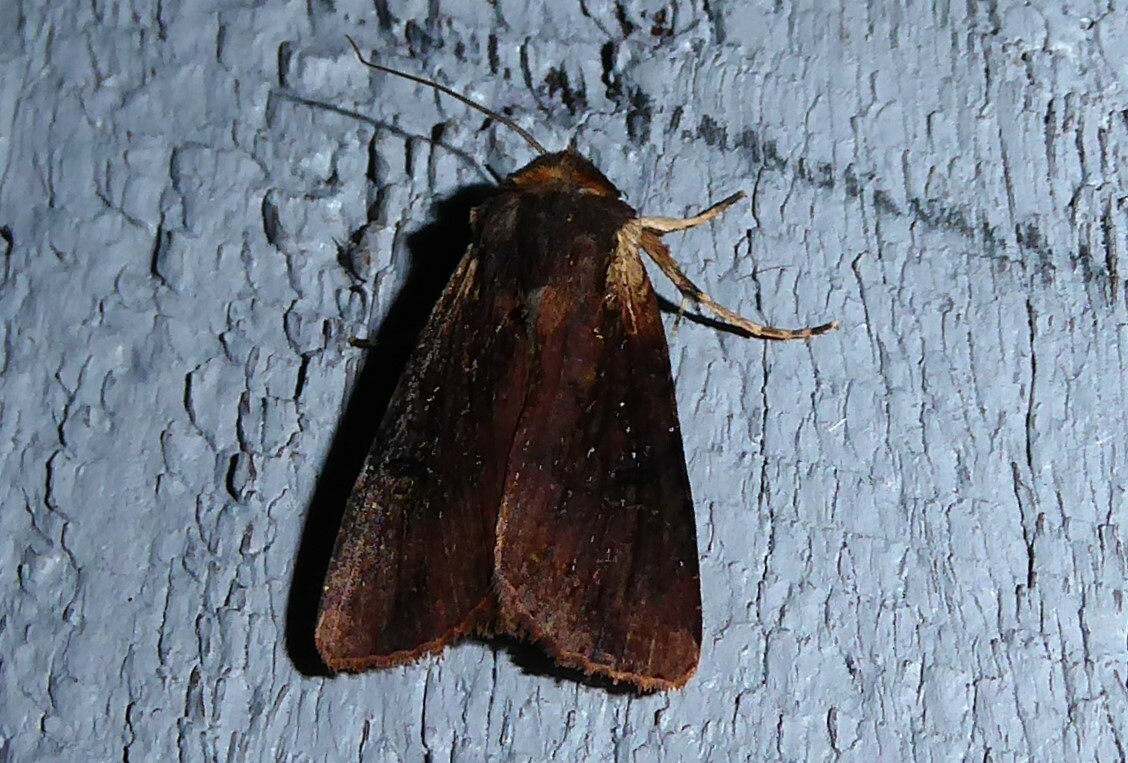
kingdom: Animalia
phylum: Arthropoda
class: Insecta
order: Lepidoptera
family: Noctuidae
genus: Ichneutica
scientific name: Ichneutica omoplaca
